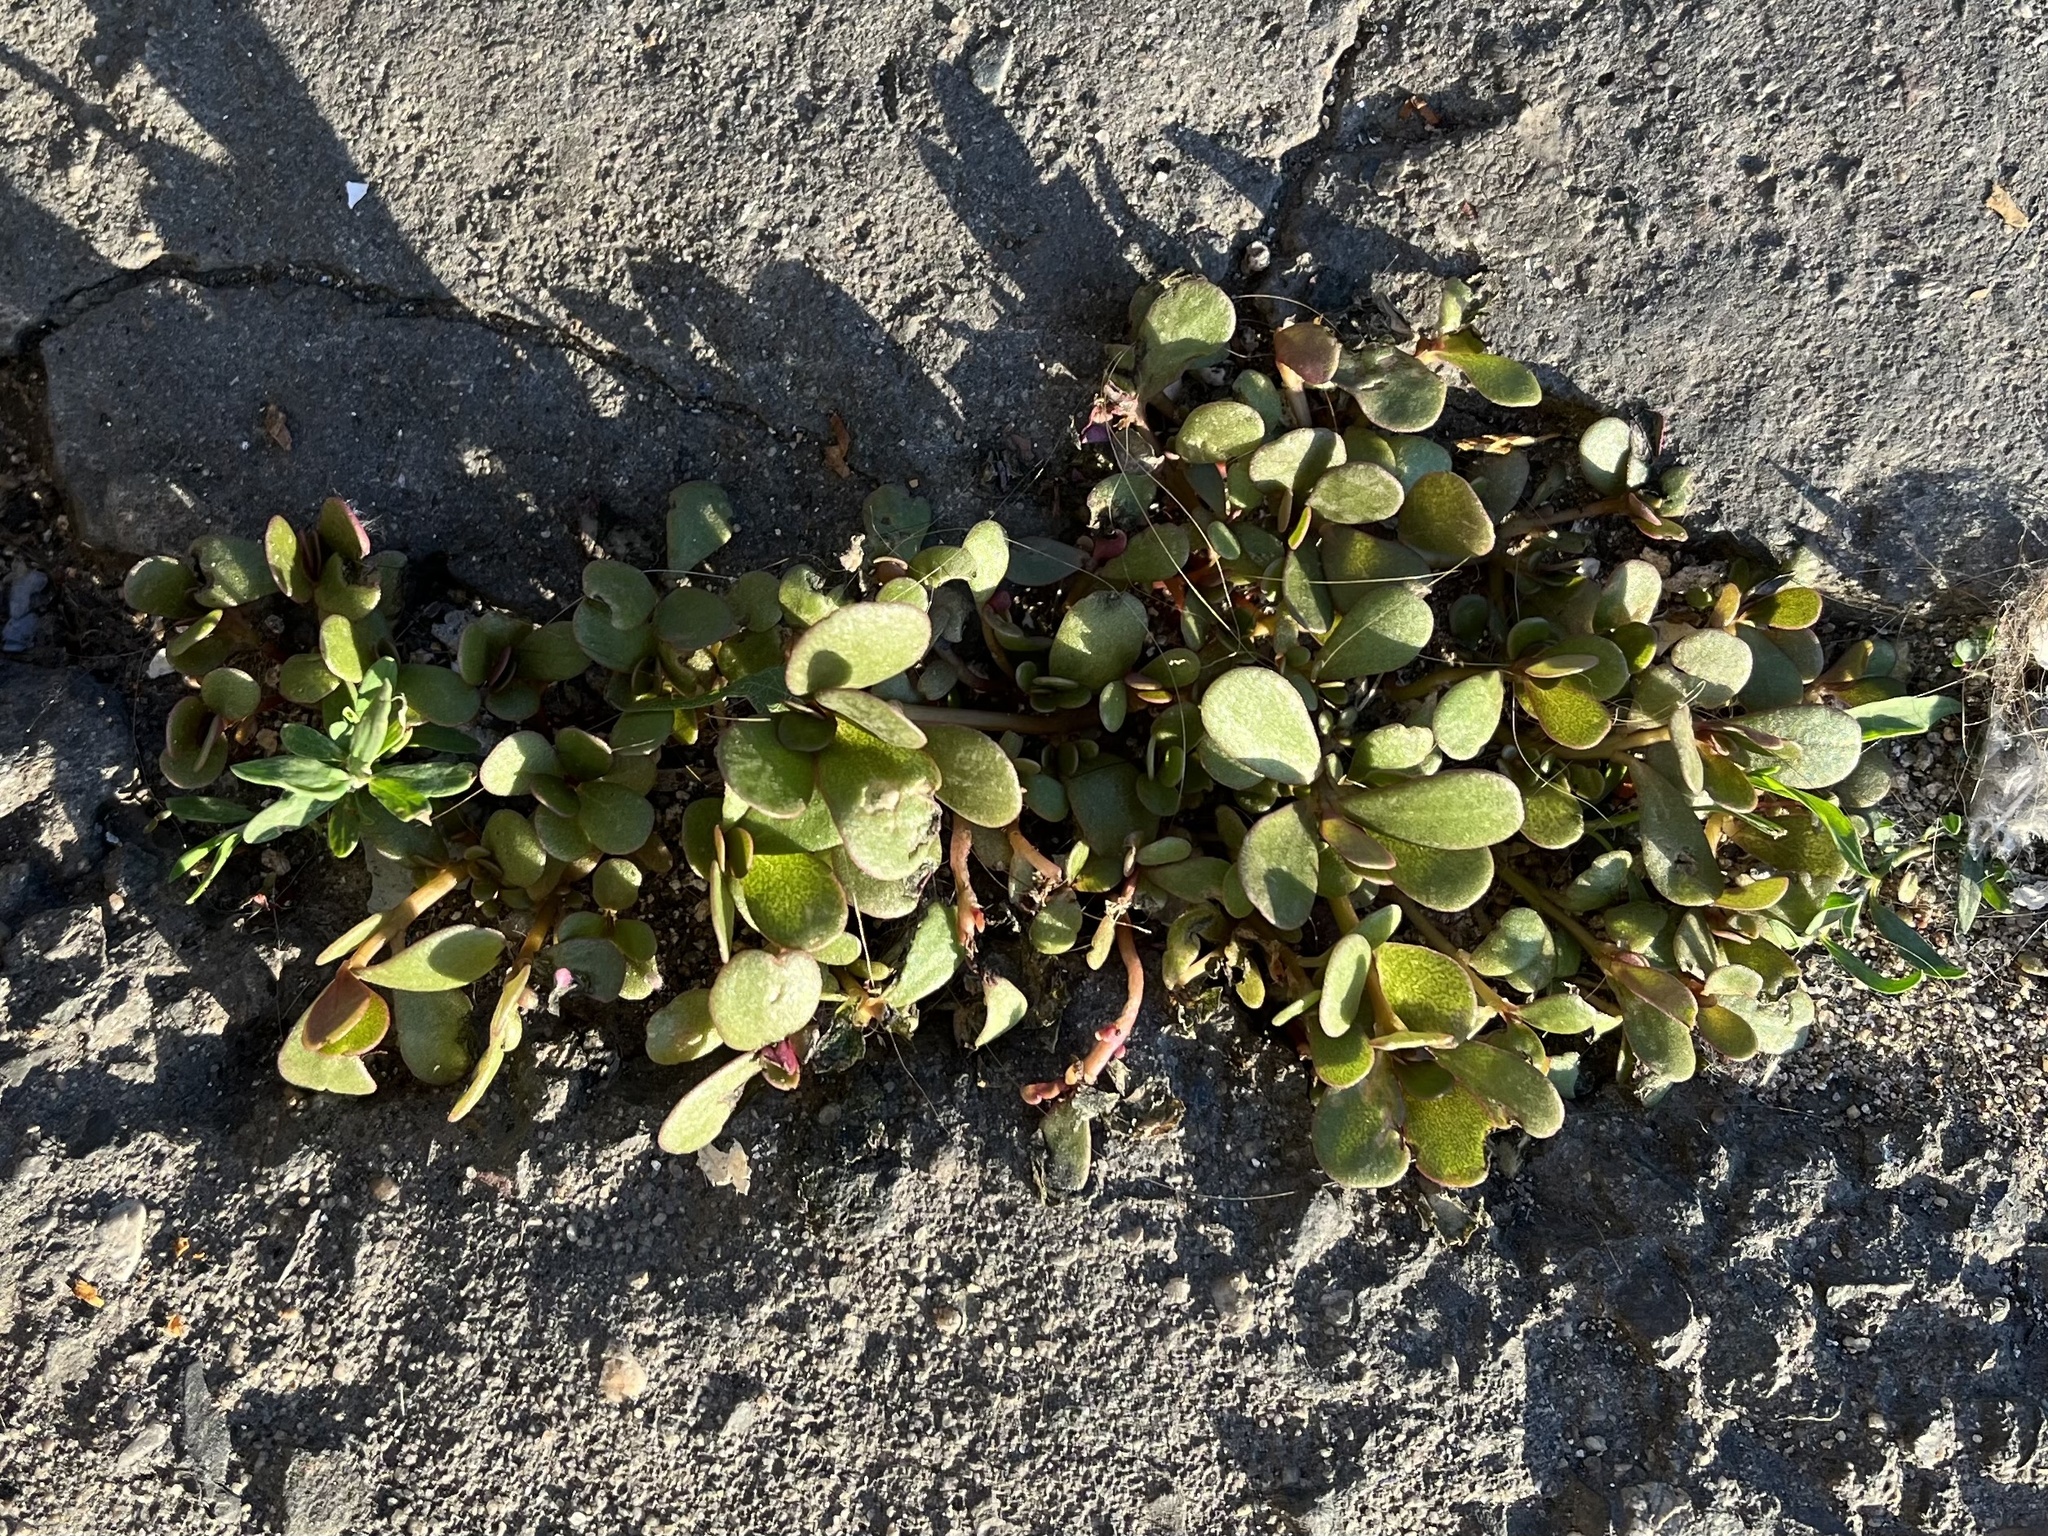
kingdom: Plantae
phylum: Tracheophyta
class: Magnoliopsida
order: Caryophyllales
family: Portulacaceae
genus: Portulaca
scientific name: Portulaca oleracea
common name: Common purslane
